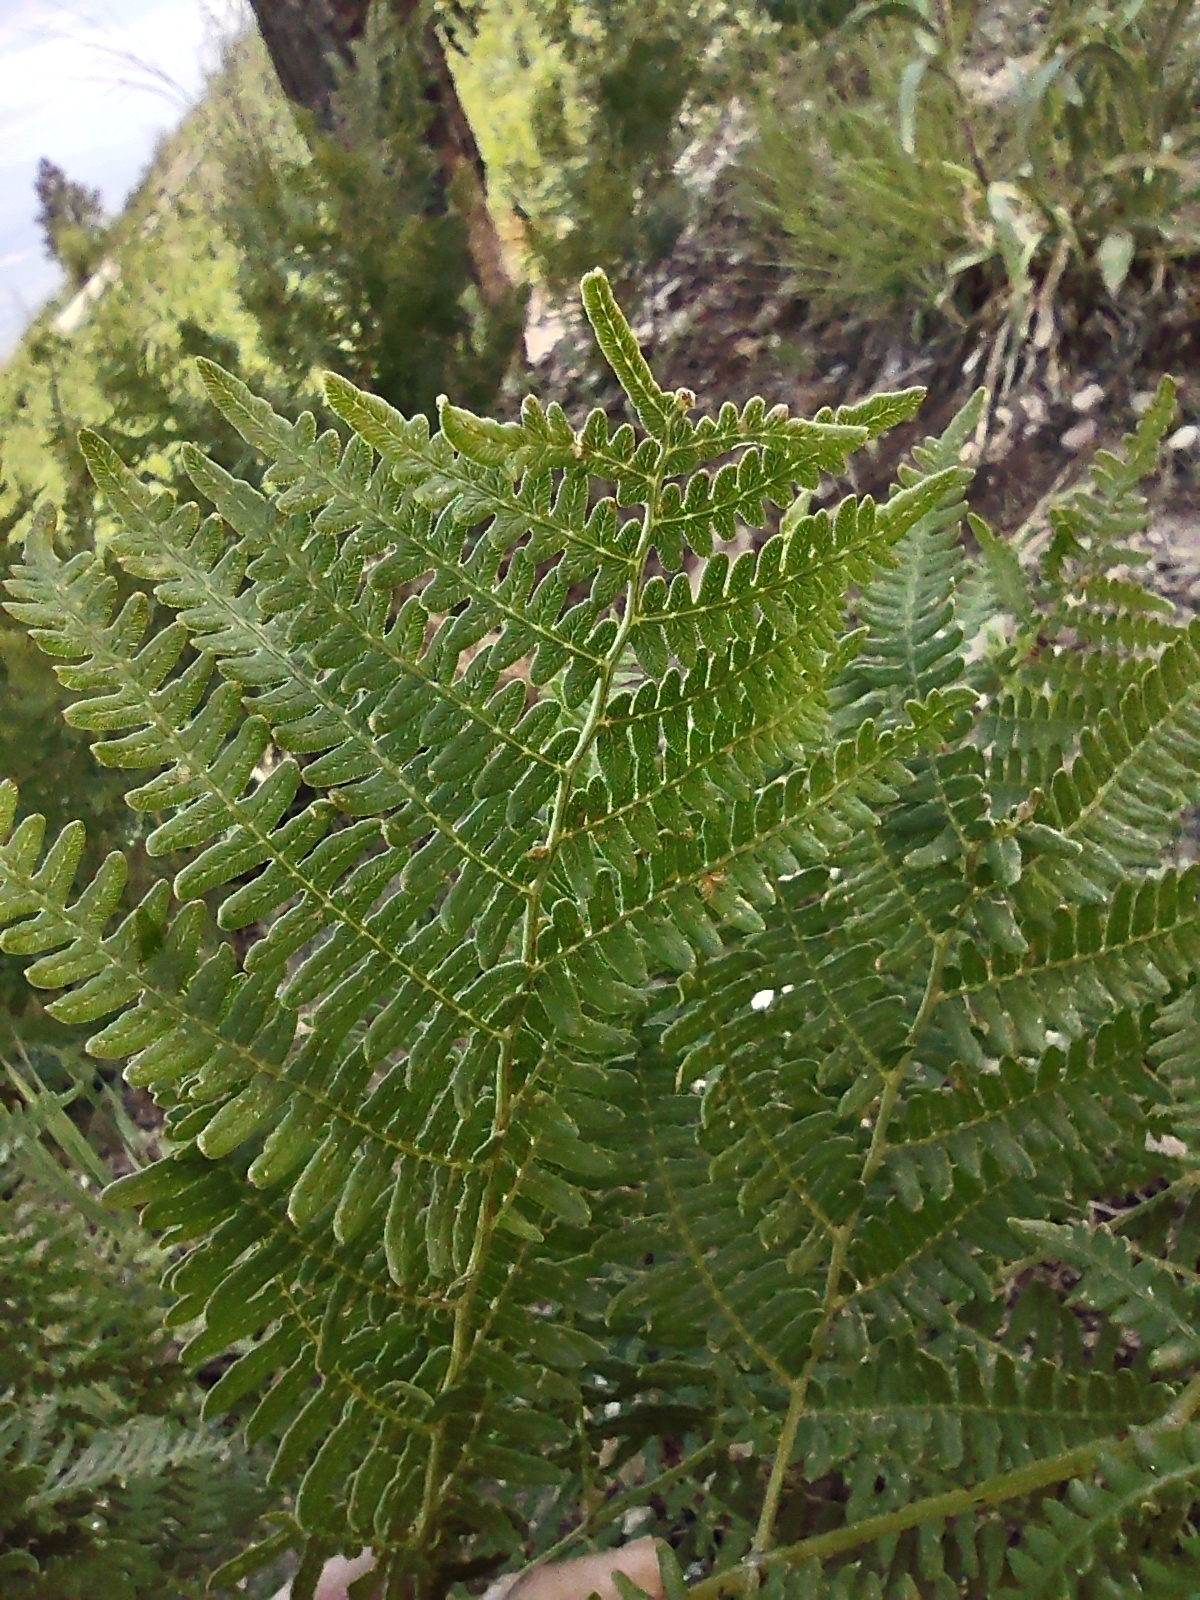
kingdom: Plantae
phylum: Tracheophyta
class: Polypodiopsida
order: Polypodiales
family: Dennstaedtiaceae
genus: Pteridium
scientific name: Pteridium aquilinum
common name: Bracken
